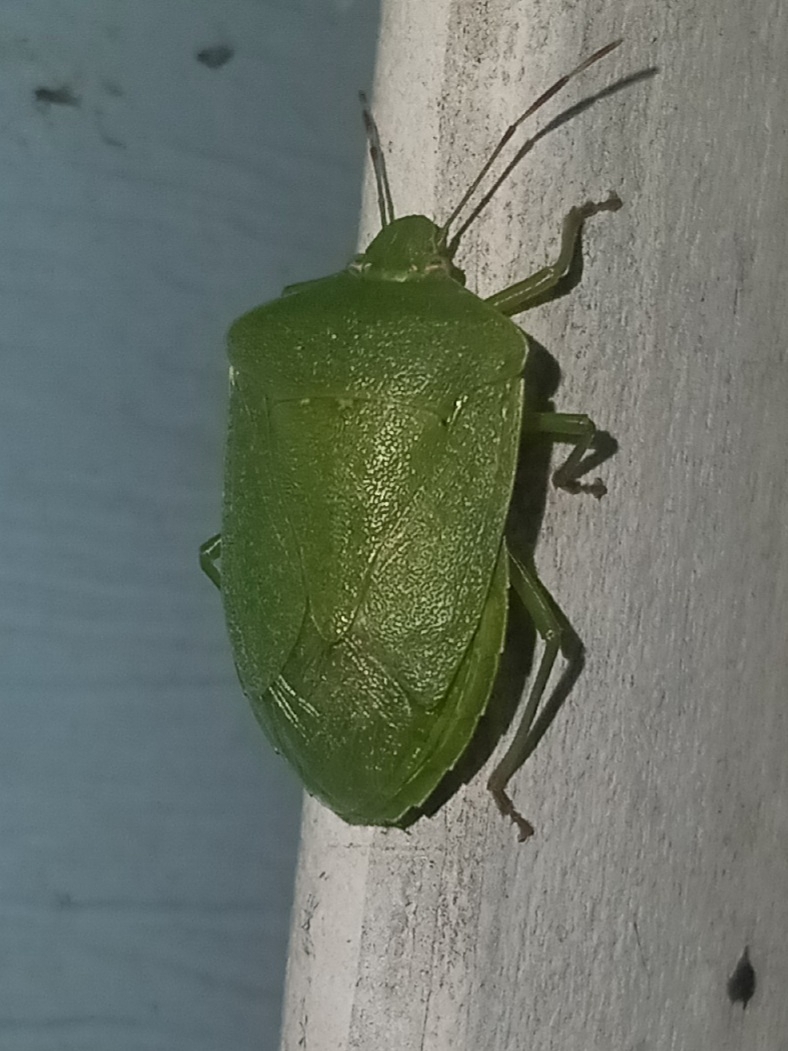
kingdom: Animalia
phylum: Arthropoda
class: Insecta
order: Hemiptera
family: Pentatomidae
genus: Nezara
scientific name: Nezara viridula
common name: Southern green stink bug
